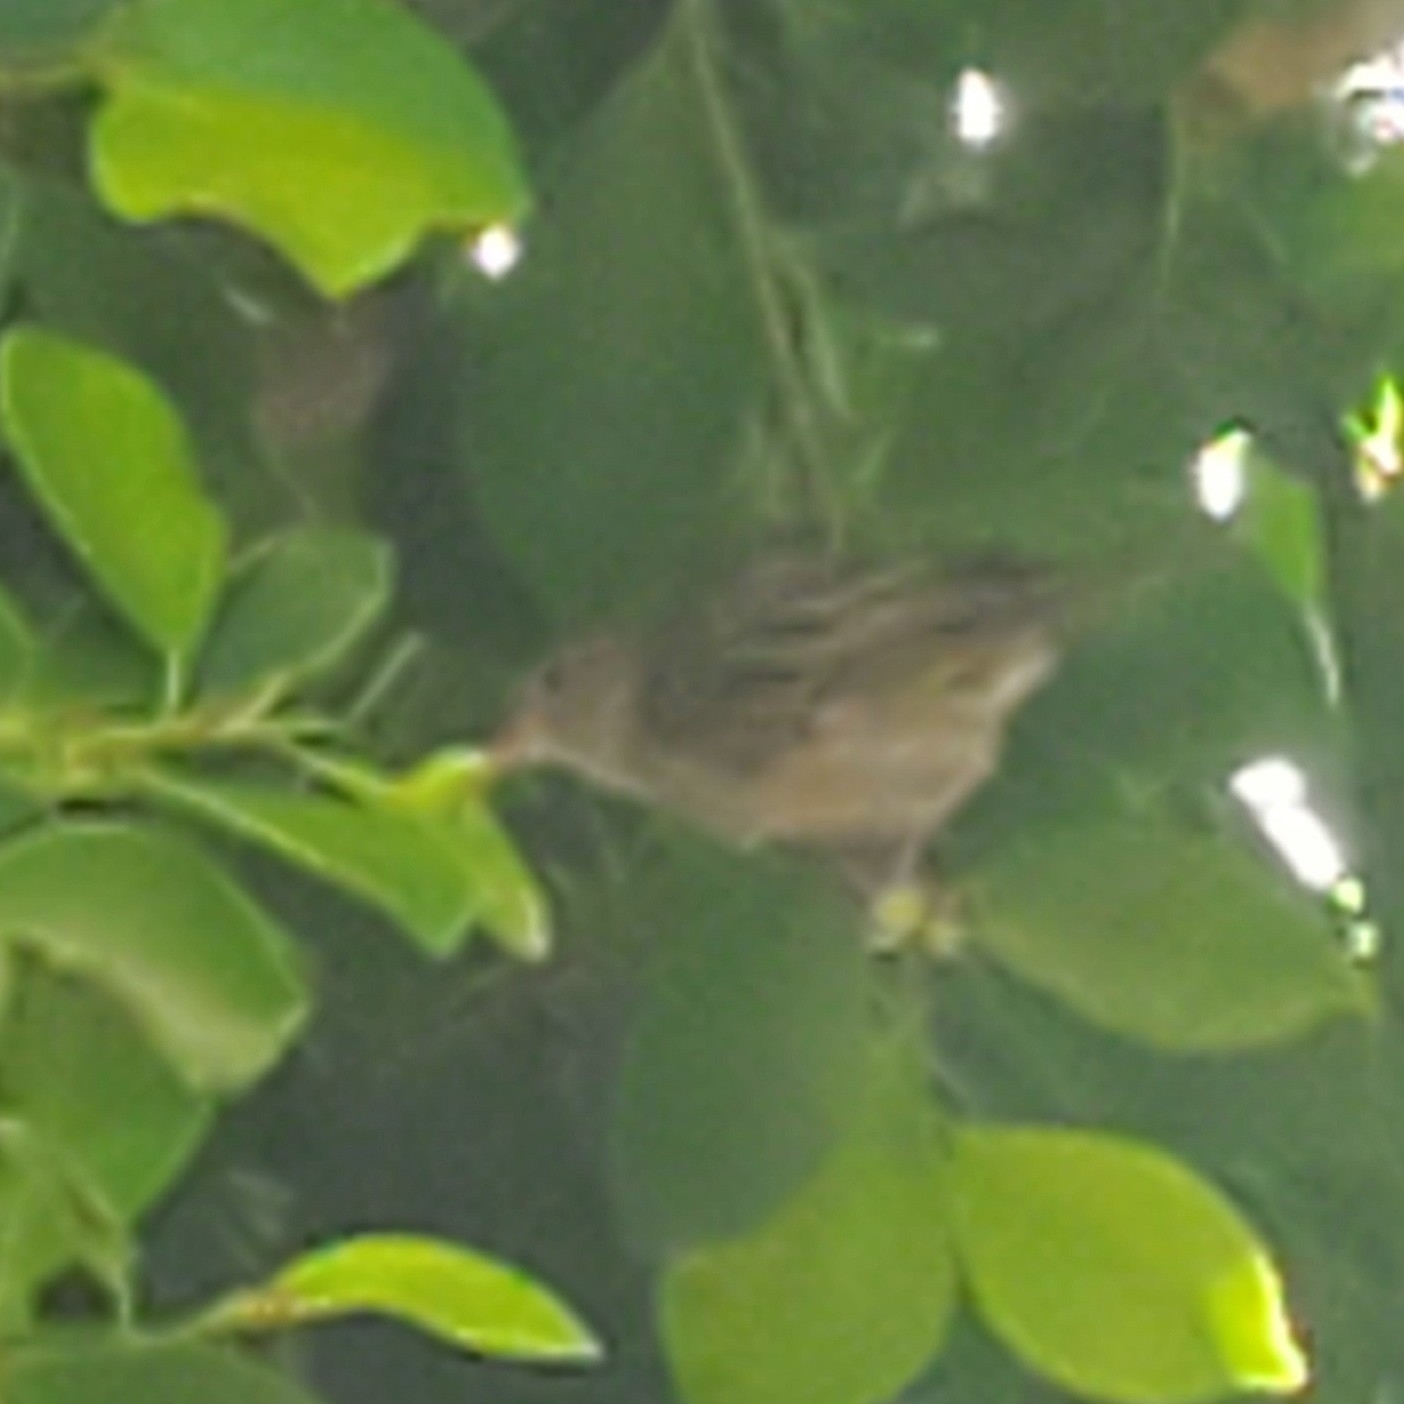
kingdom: Animalia
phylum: Chordata
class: Aves
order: Passeriformes
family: Passeridae
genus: Passer
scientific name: Passer domesticus
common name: House sparrow
